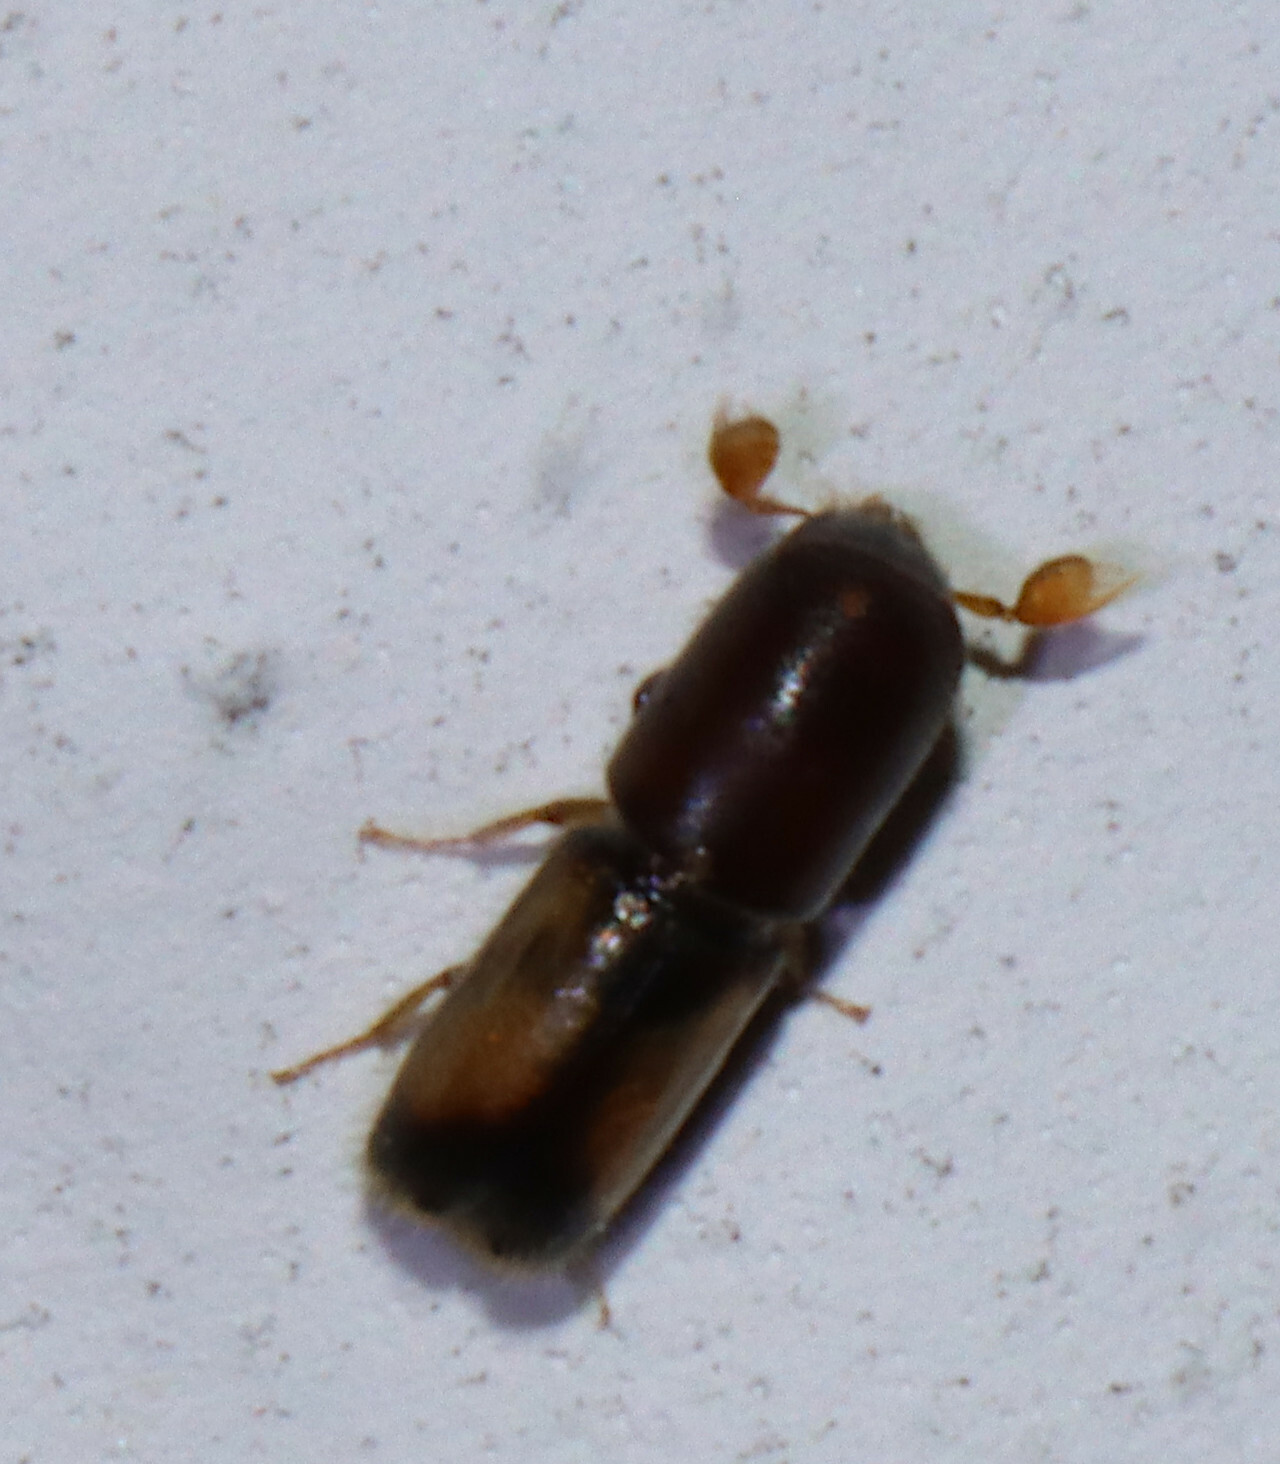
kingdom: Animalia
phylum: Arthropoda
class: Insecta
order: Coleoptera
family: Curculionidae
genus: Monarthrum
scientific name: Monarthrum fasciatum
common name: Yellow-banded timber beetle
